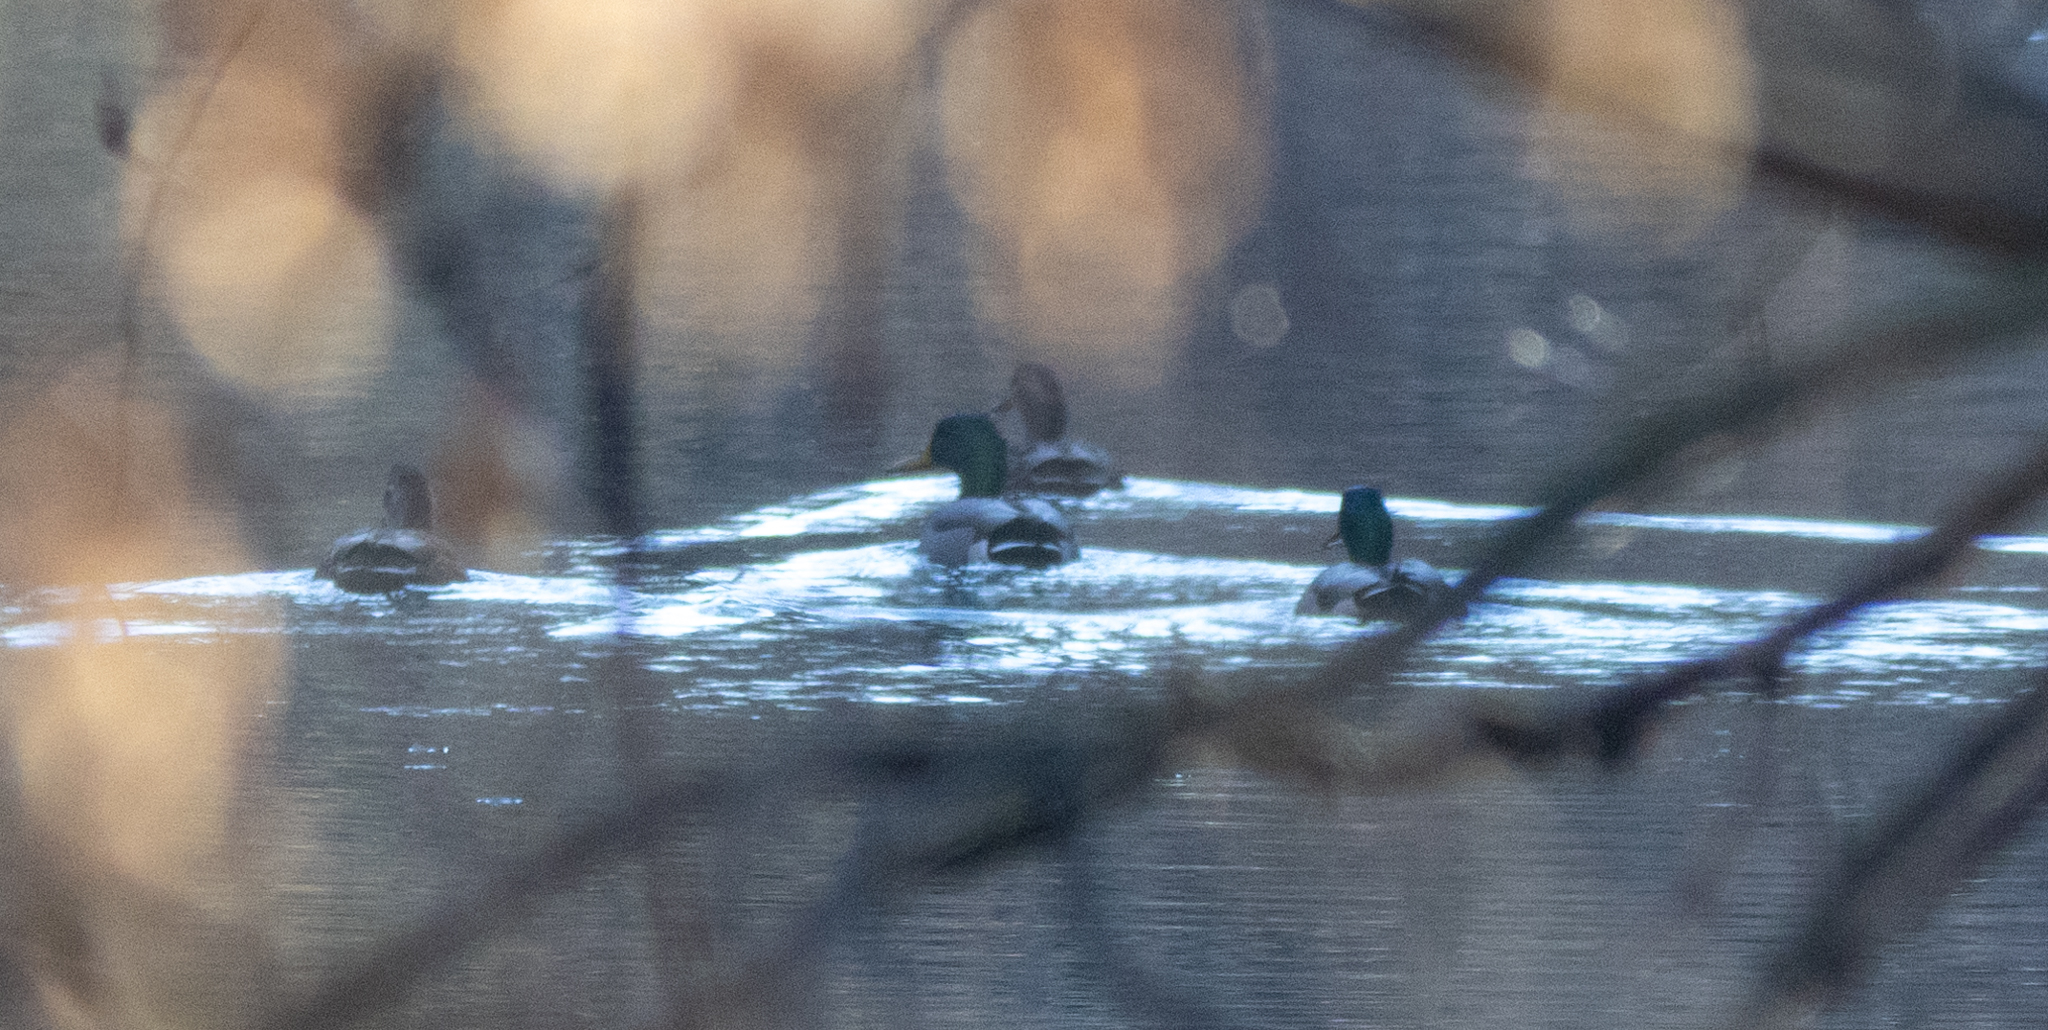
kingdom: Animalia
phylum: Chordata
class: Aves
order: Anseriformes
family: Anatidae
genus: Anas
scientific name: Anas platyrhynchos
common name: Mallard
